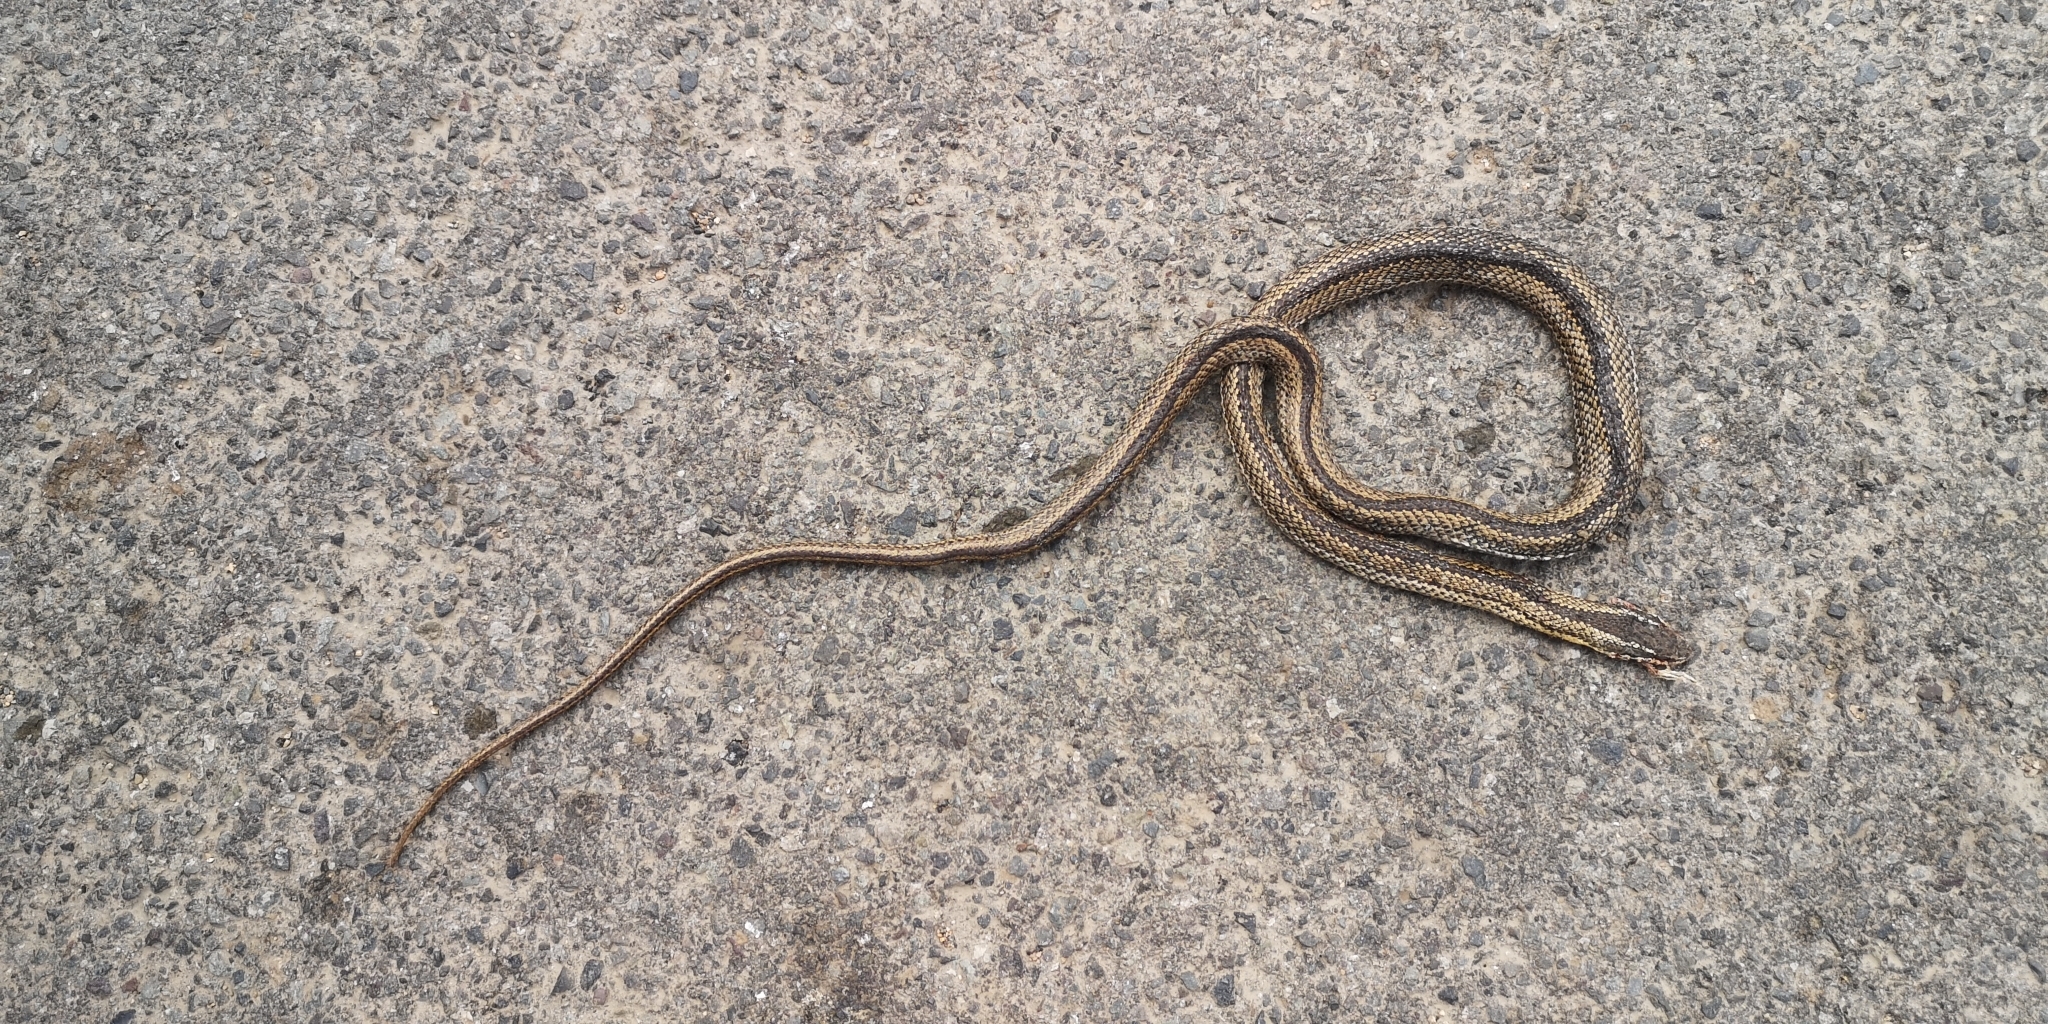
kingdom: Animalia
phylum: Chordata
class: Squamata
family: Colubridae
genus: Philodryas
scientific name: Philodryas chamissonis
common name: Chilean green racer
